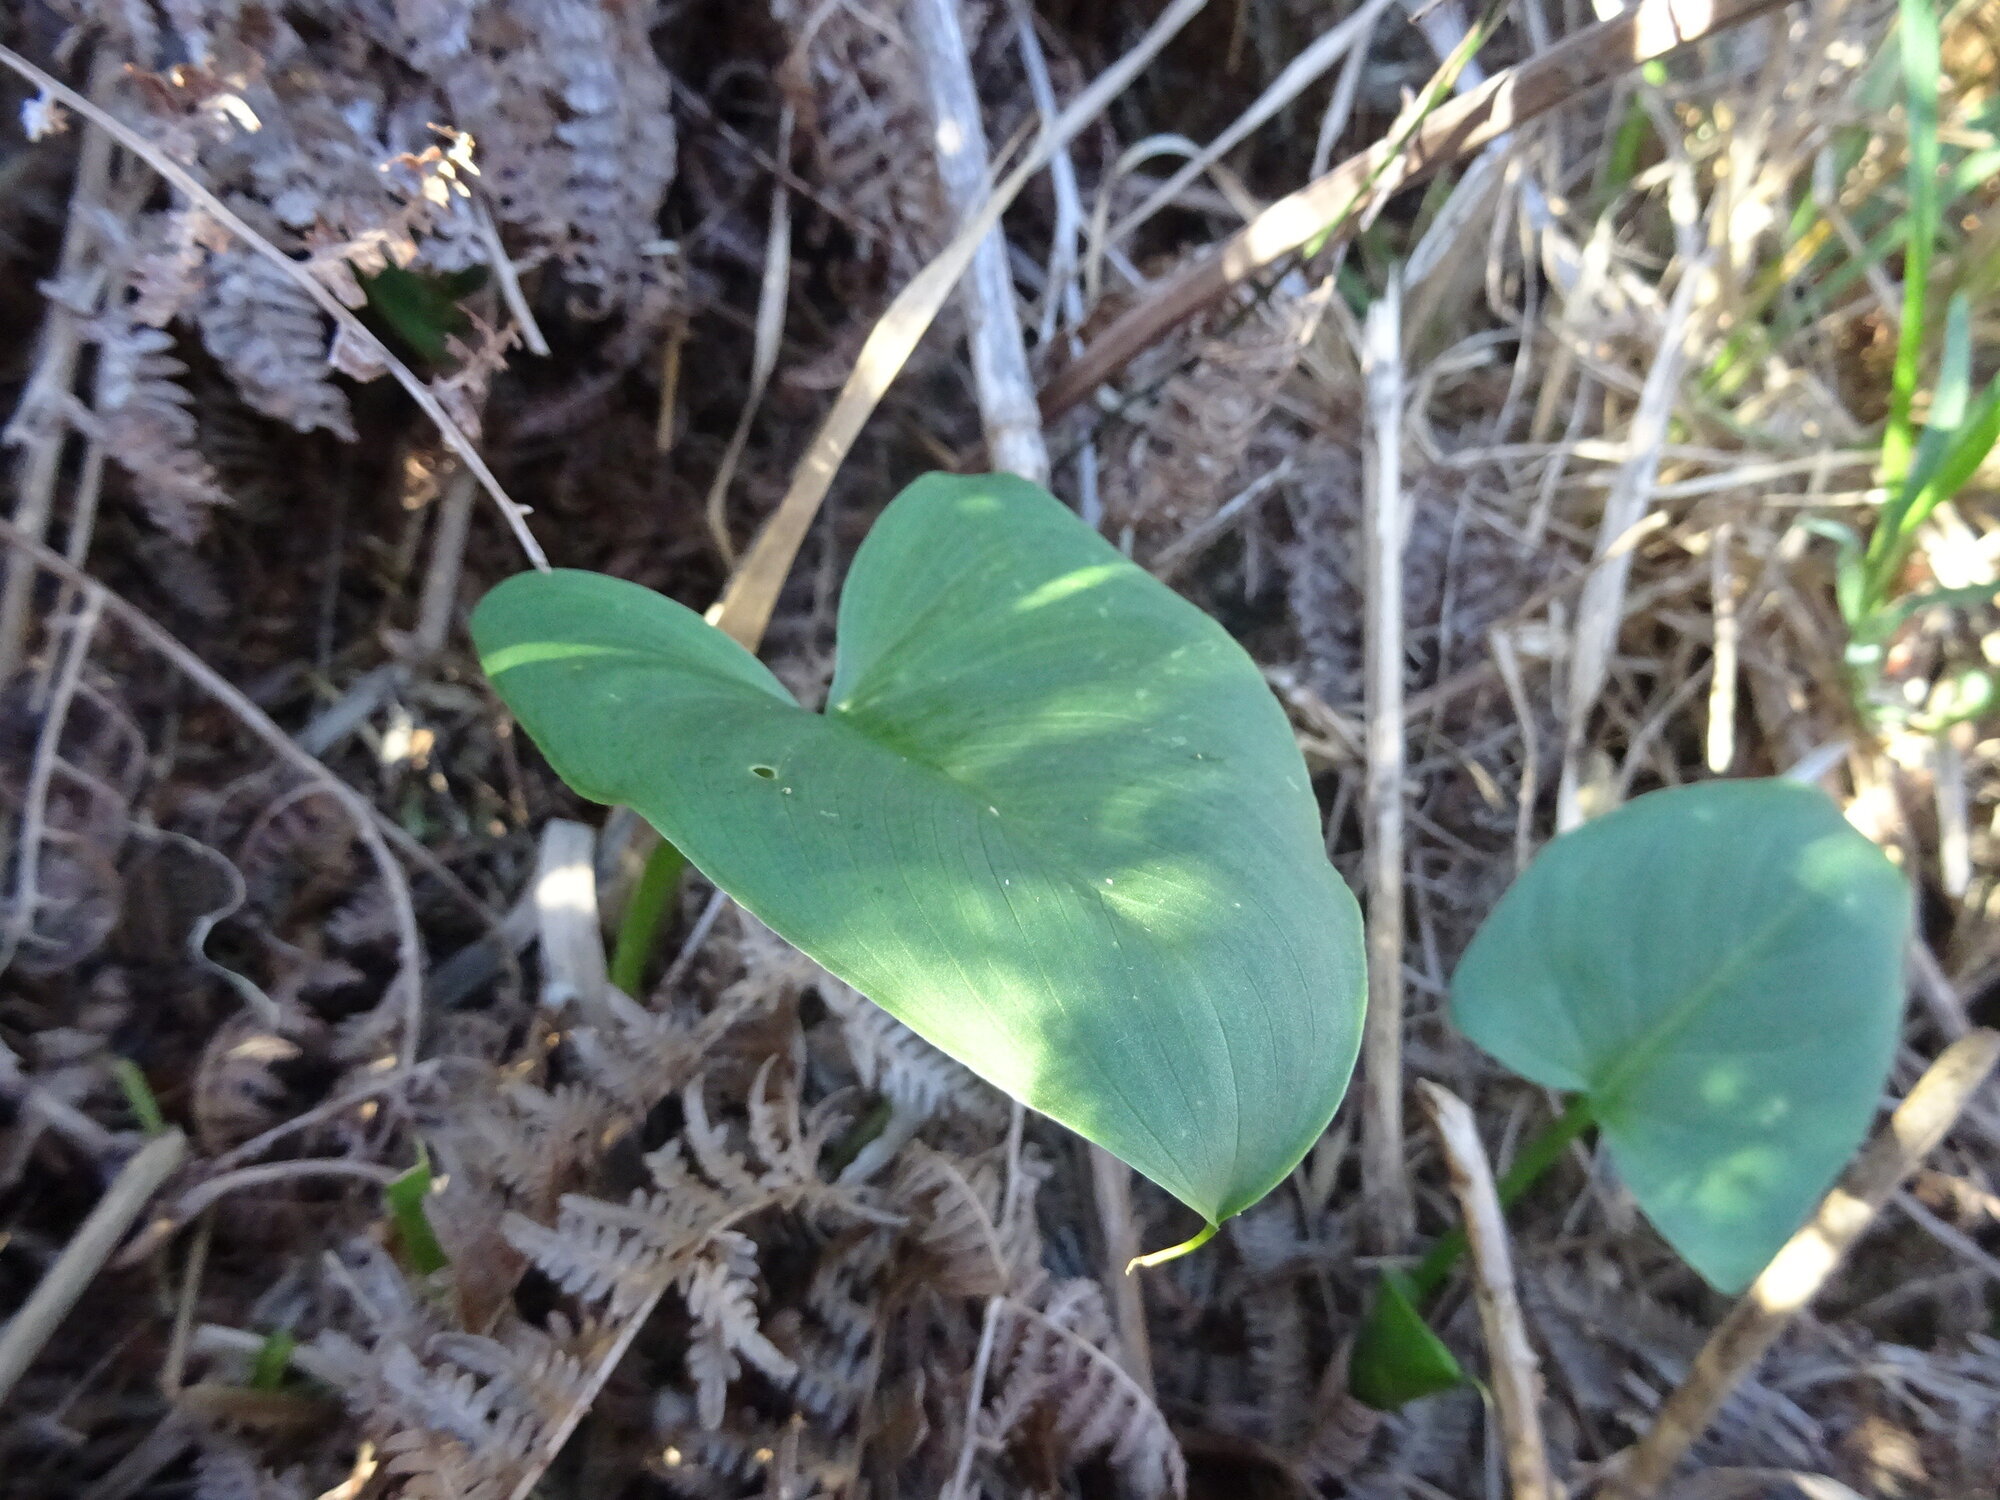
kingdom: Plantae
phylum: Tracheophyta
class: Liliopsida
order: Alismatales
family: Araceae
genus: Zantedeschia
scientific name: Zantedeschia aethiopica
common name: Altar-lily
